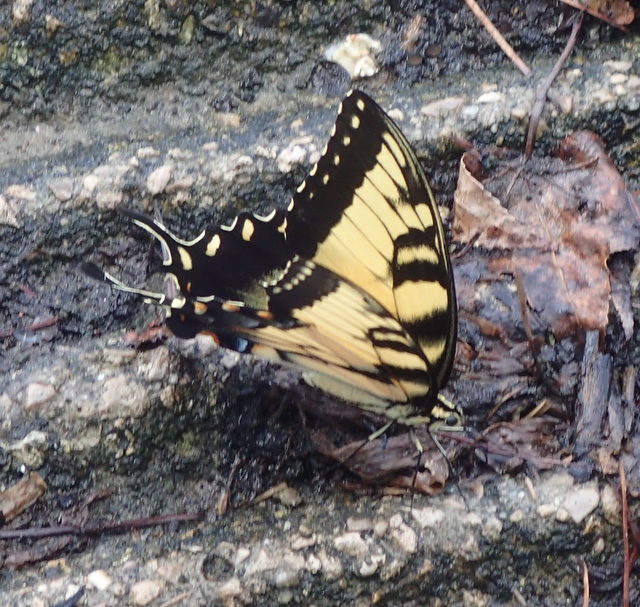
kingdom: Animalia
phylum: Arthropoda
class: Insecta
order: Lepidoptera
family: Papilionidae
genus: Papilio
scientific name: Papilio glaucus
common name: Tiger swallowtail
